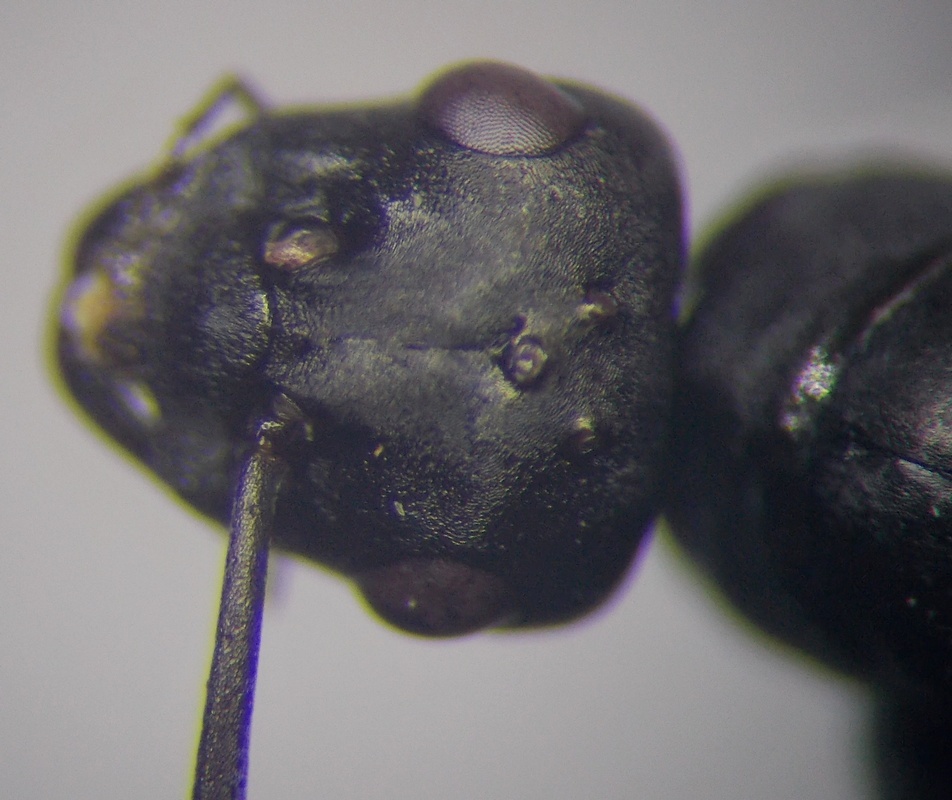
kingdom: Animalia
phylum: Arthropoda
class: Insecta
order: Hymenoptera
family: Formicidae
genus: Cataglyphis
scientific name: Cataglyphis aenescens
